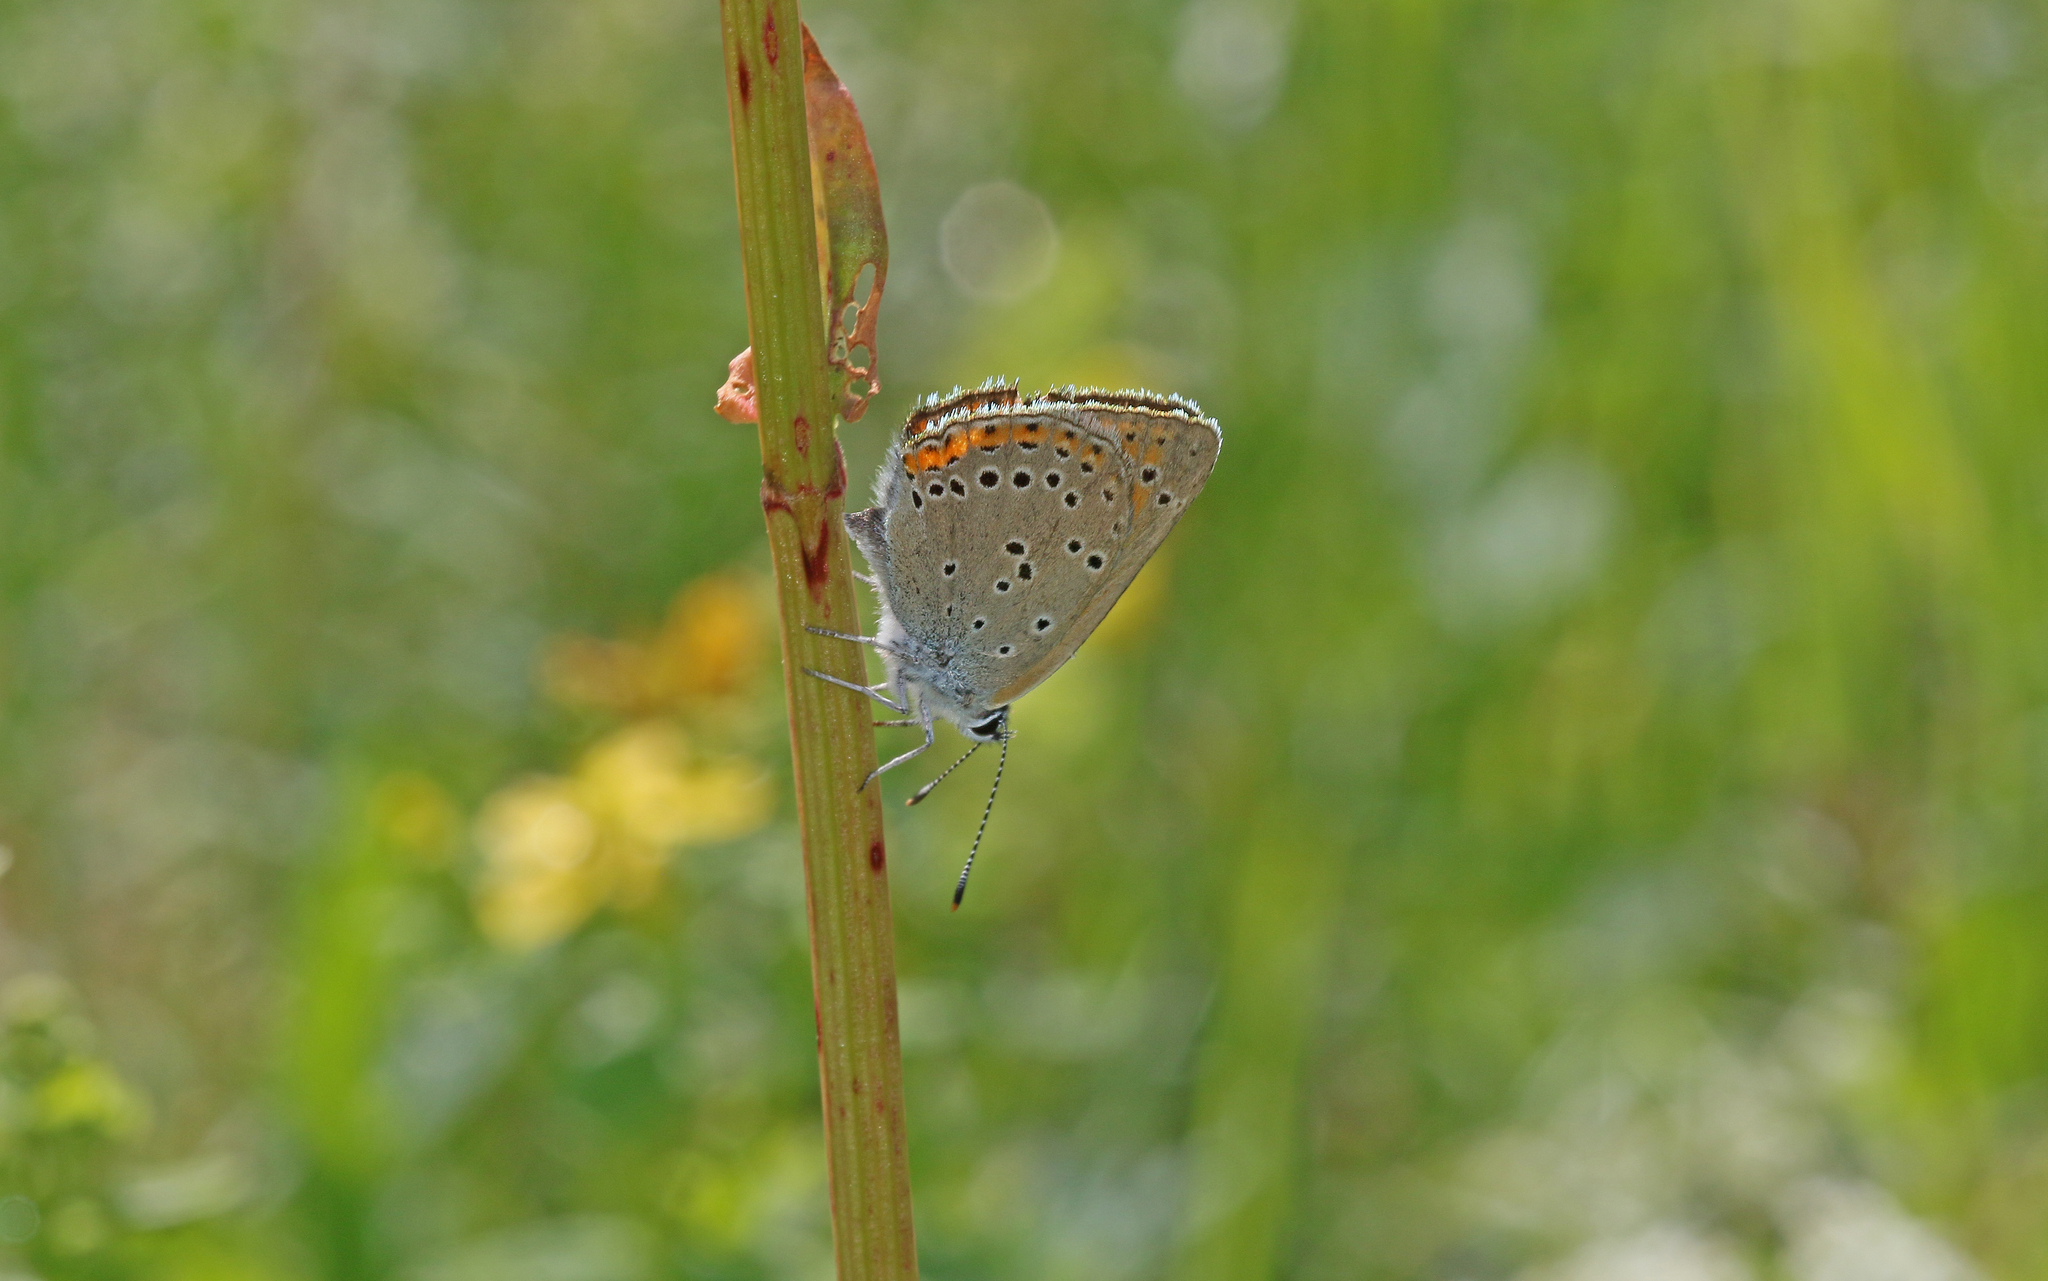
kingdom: Animalia
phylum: Arthropoda
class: Insecta
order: Lepidoptera
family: Lycaenidae
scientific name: Lycaenidae
